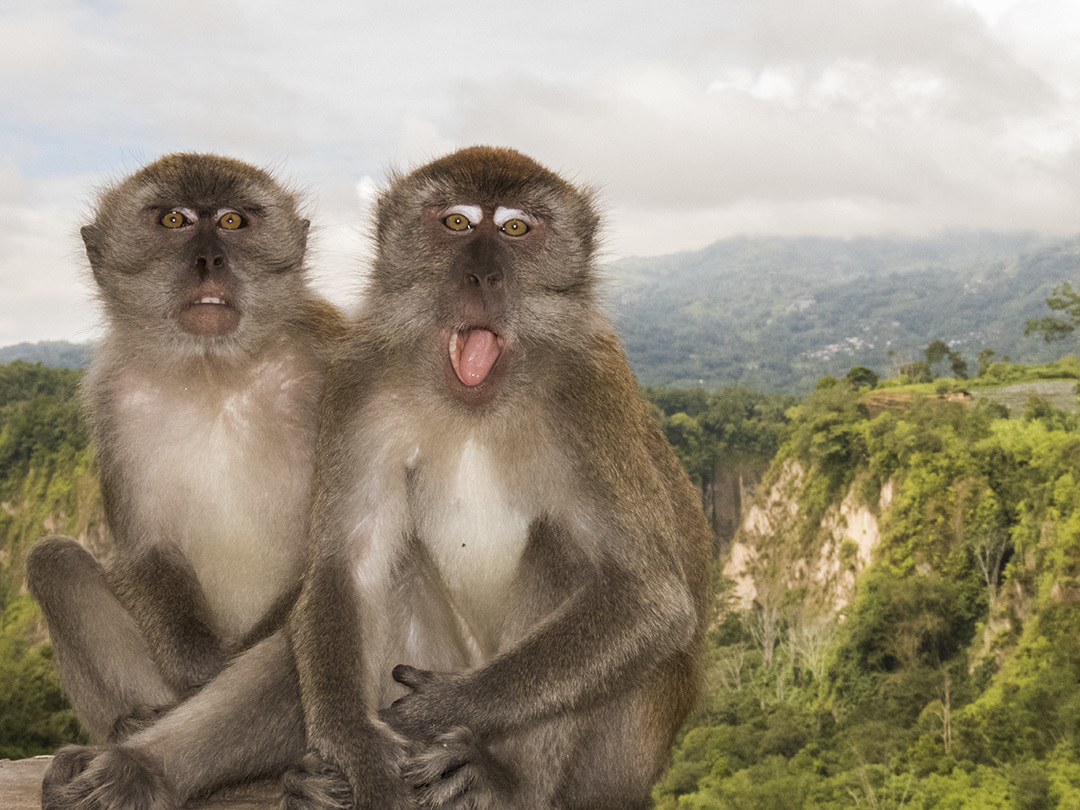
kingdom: Animalia
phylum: Chordata
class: Mammalia
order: Primates
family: Cercopithecidae
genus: Macaca
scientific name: Macaca fascicularis
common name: Crab-eating macaque
